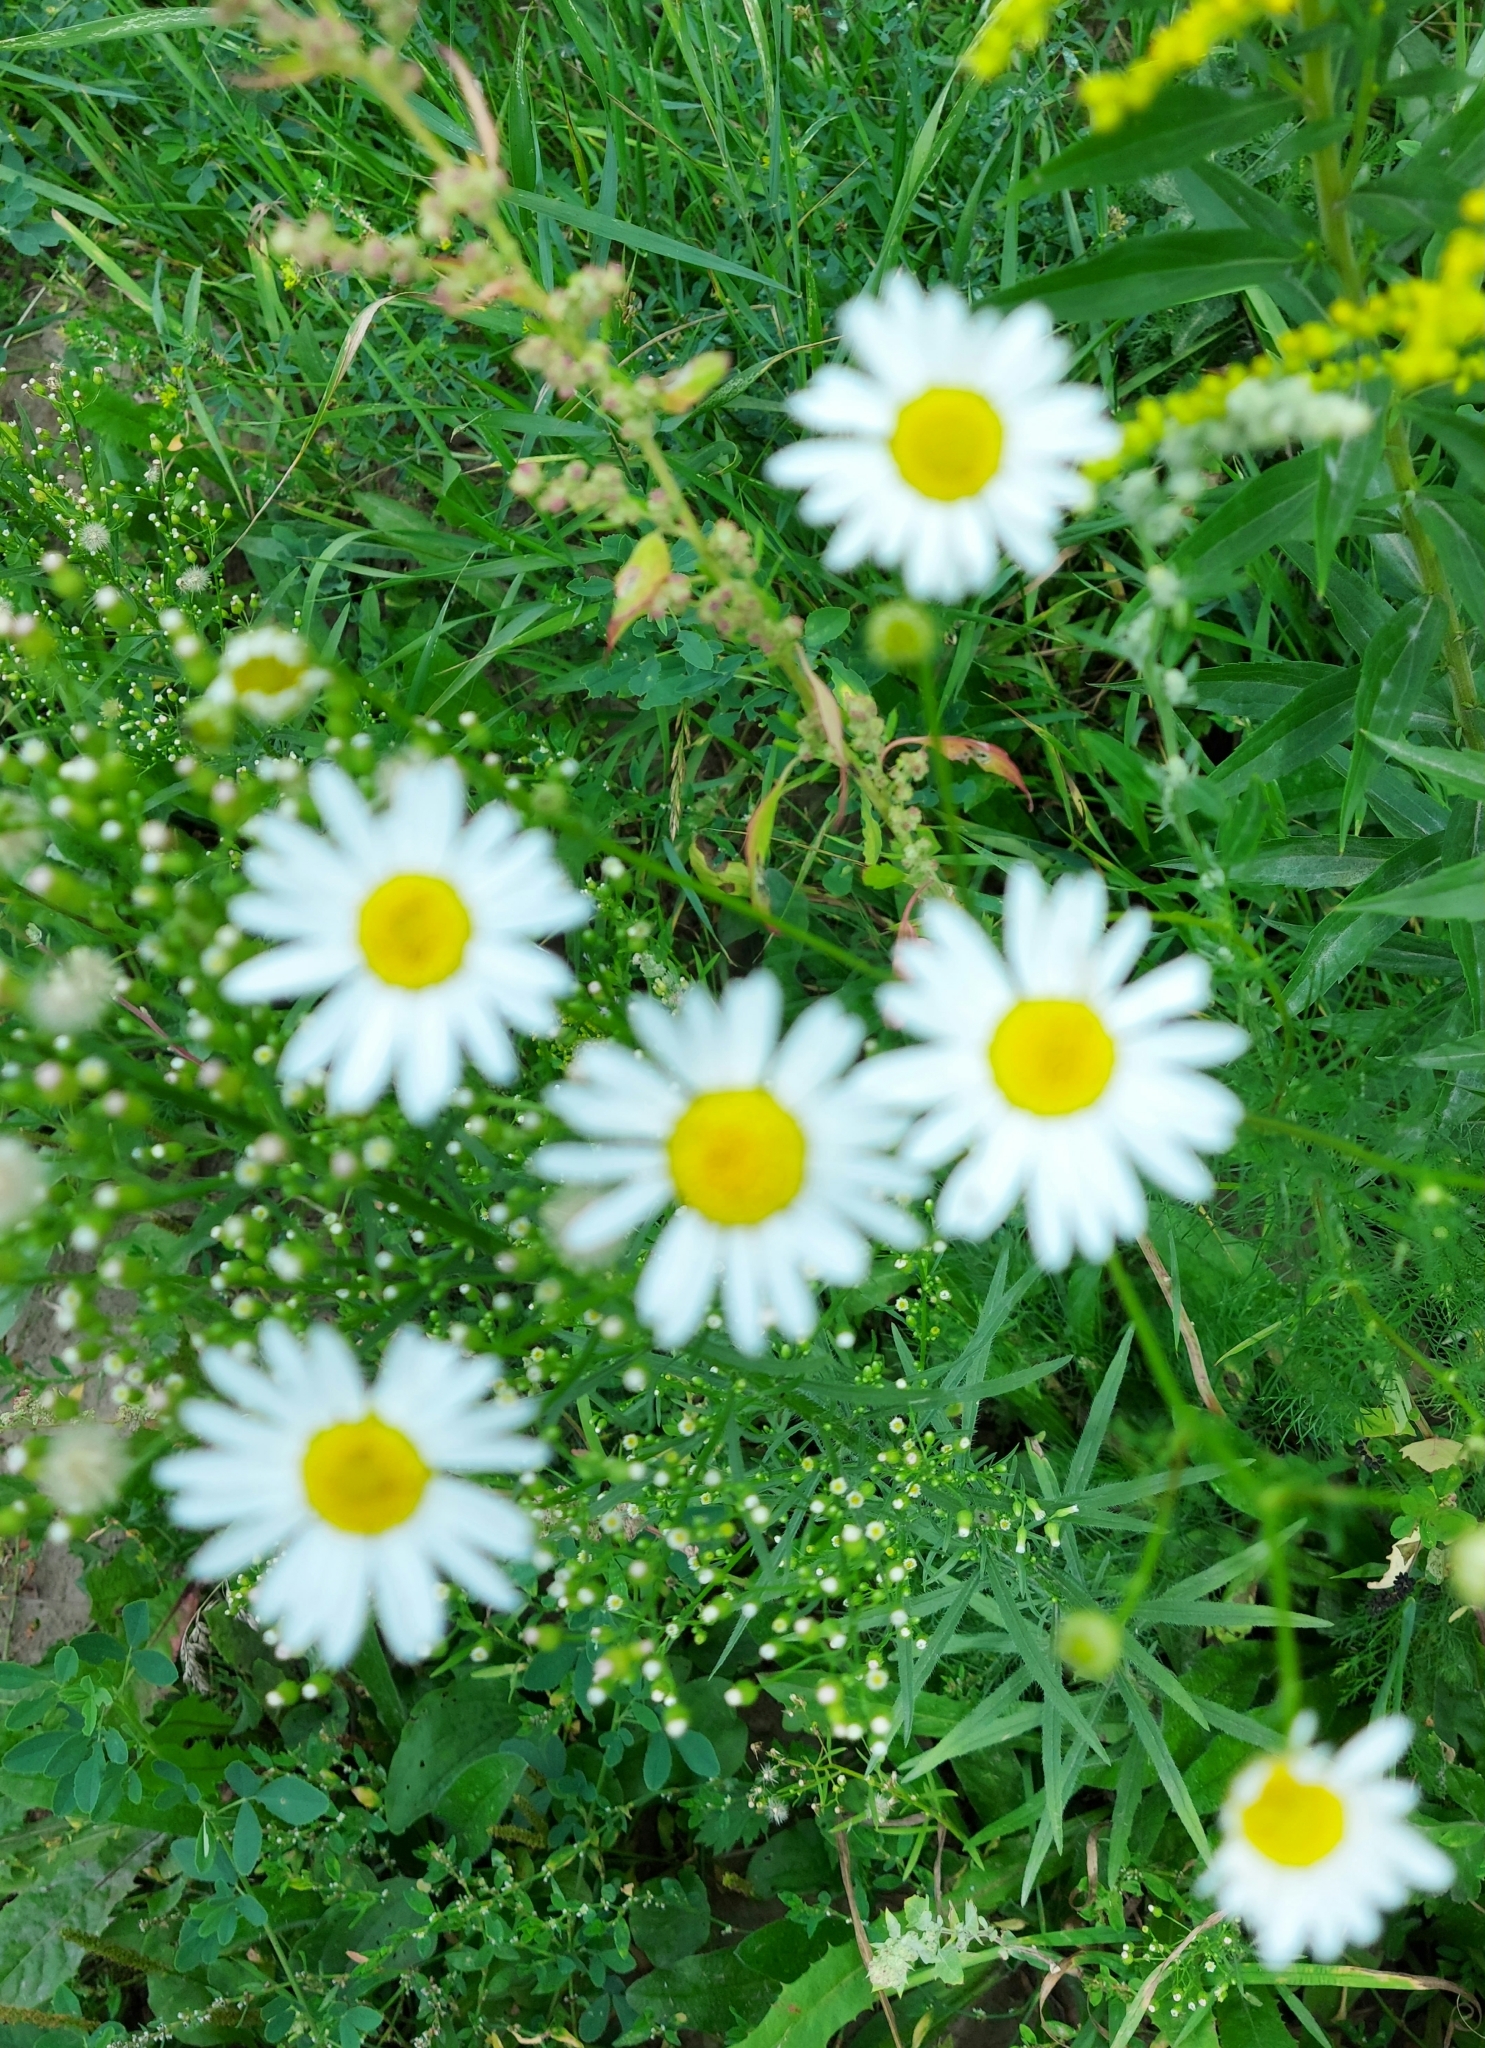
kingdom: Plantae
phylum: Tracheophyta
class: Magnoliopsida
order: Asterales
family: Asteraceae
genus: Tripleurospermum
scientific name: Tripleurospermum inodorum
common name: Scentless mayweed
